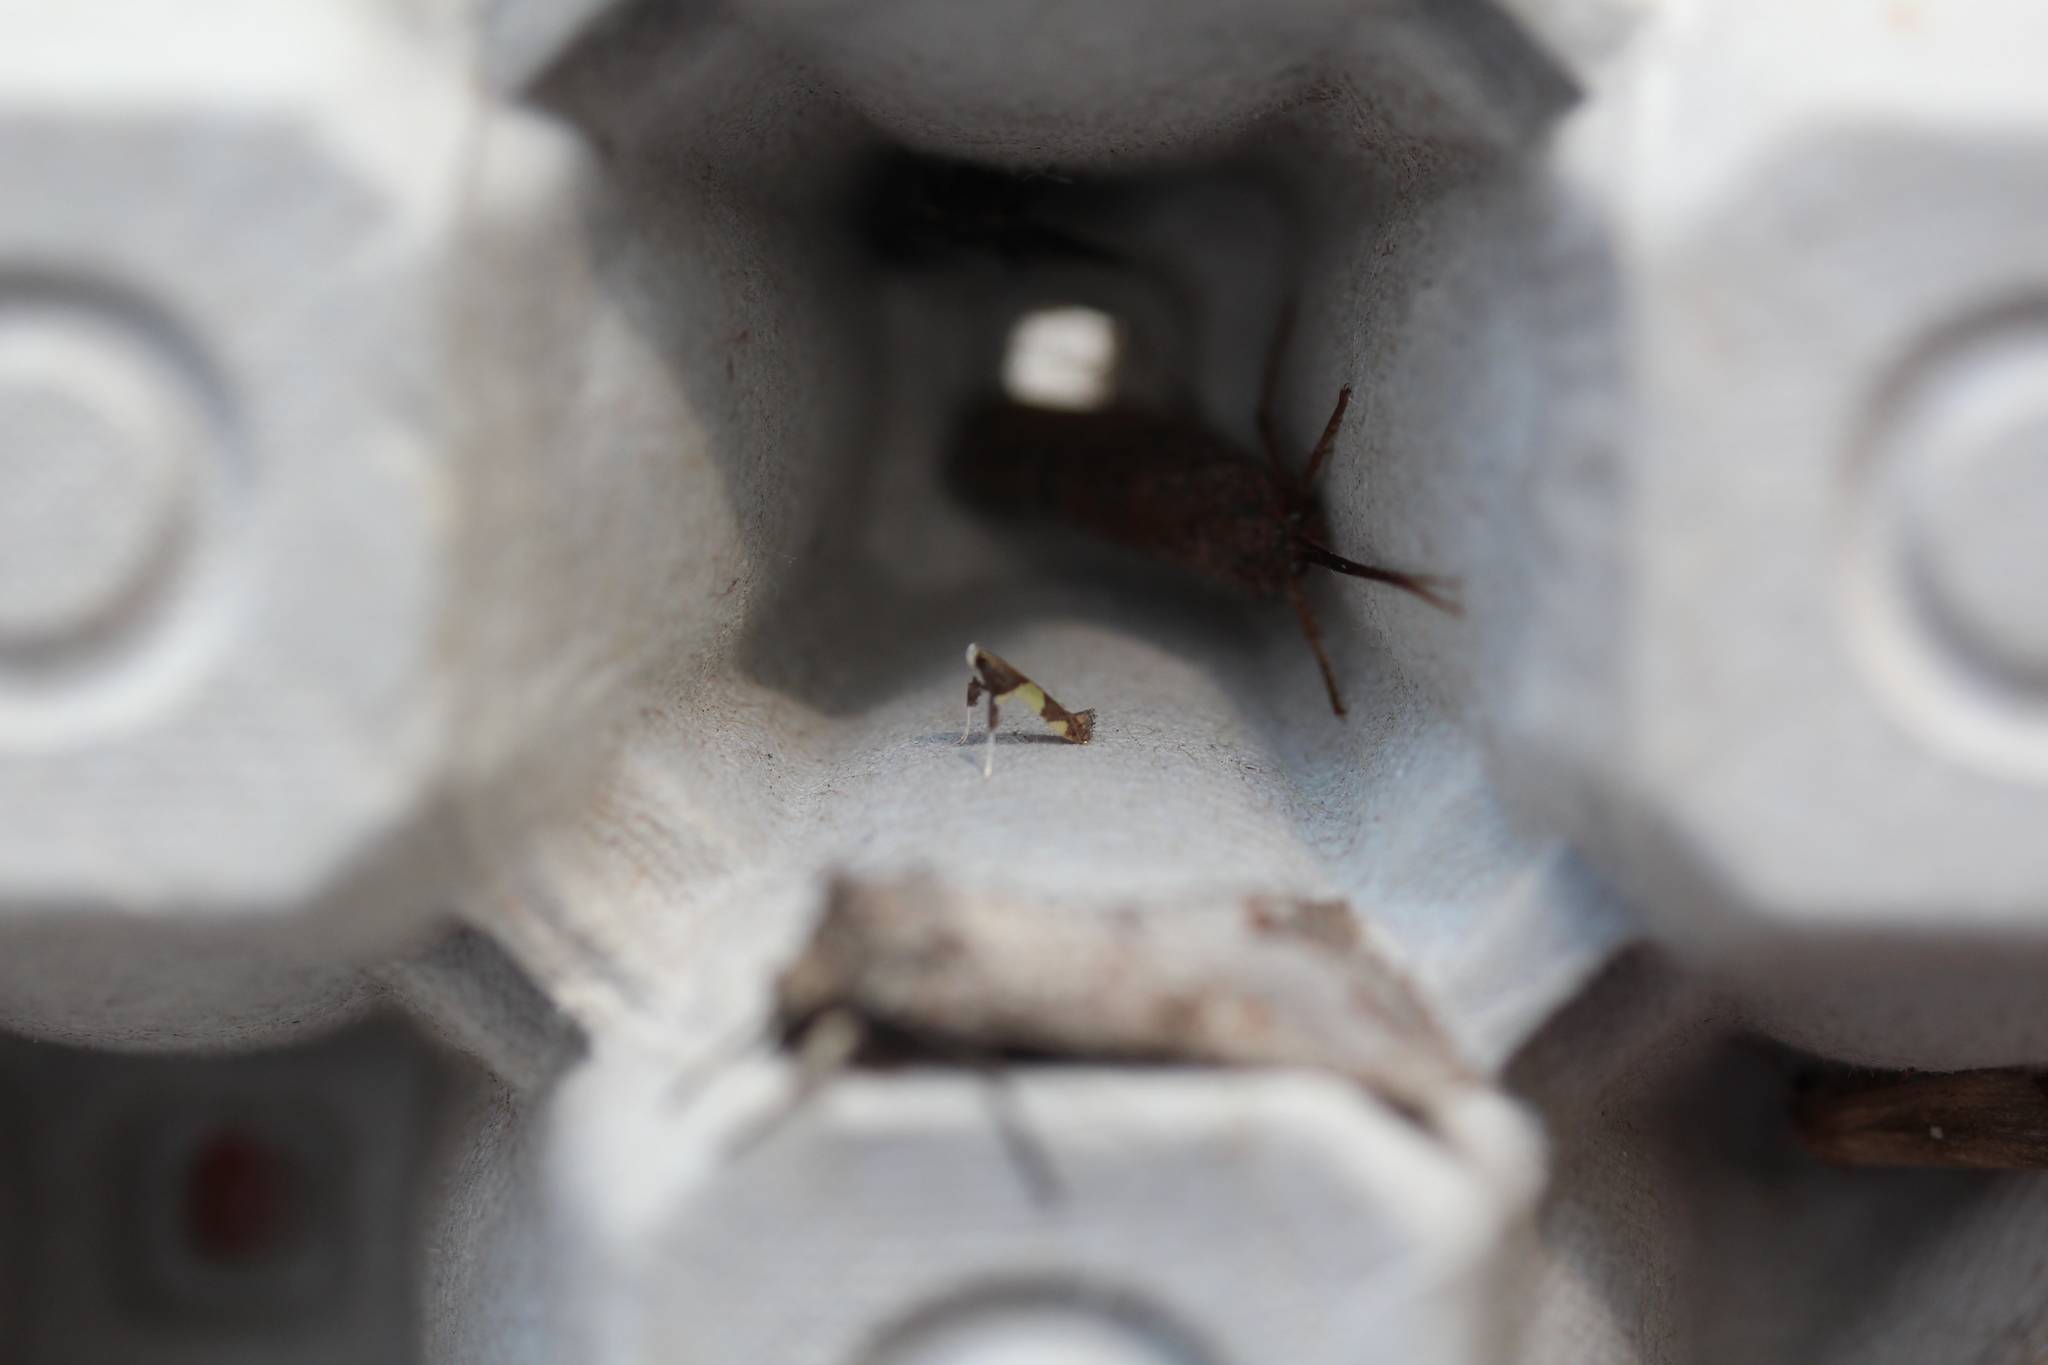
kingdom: Animalia
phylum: Arthropoda
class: Insecta
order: Lepidoptera
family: Gracillariidae
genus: Caloptilia
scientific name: Caloptilia bimaculatella
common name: Maple caloptilia moth
